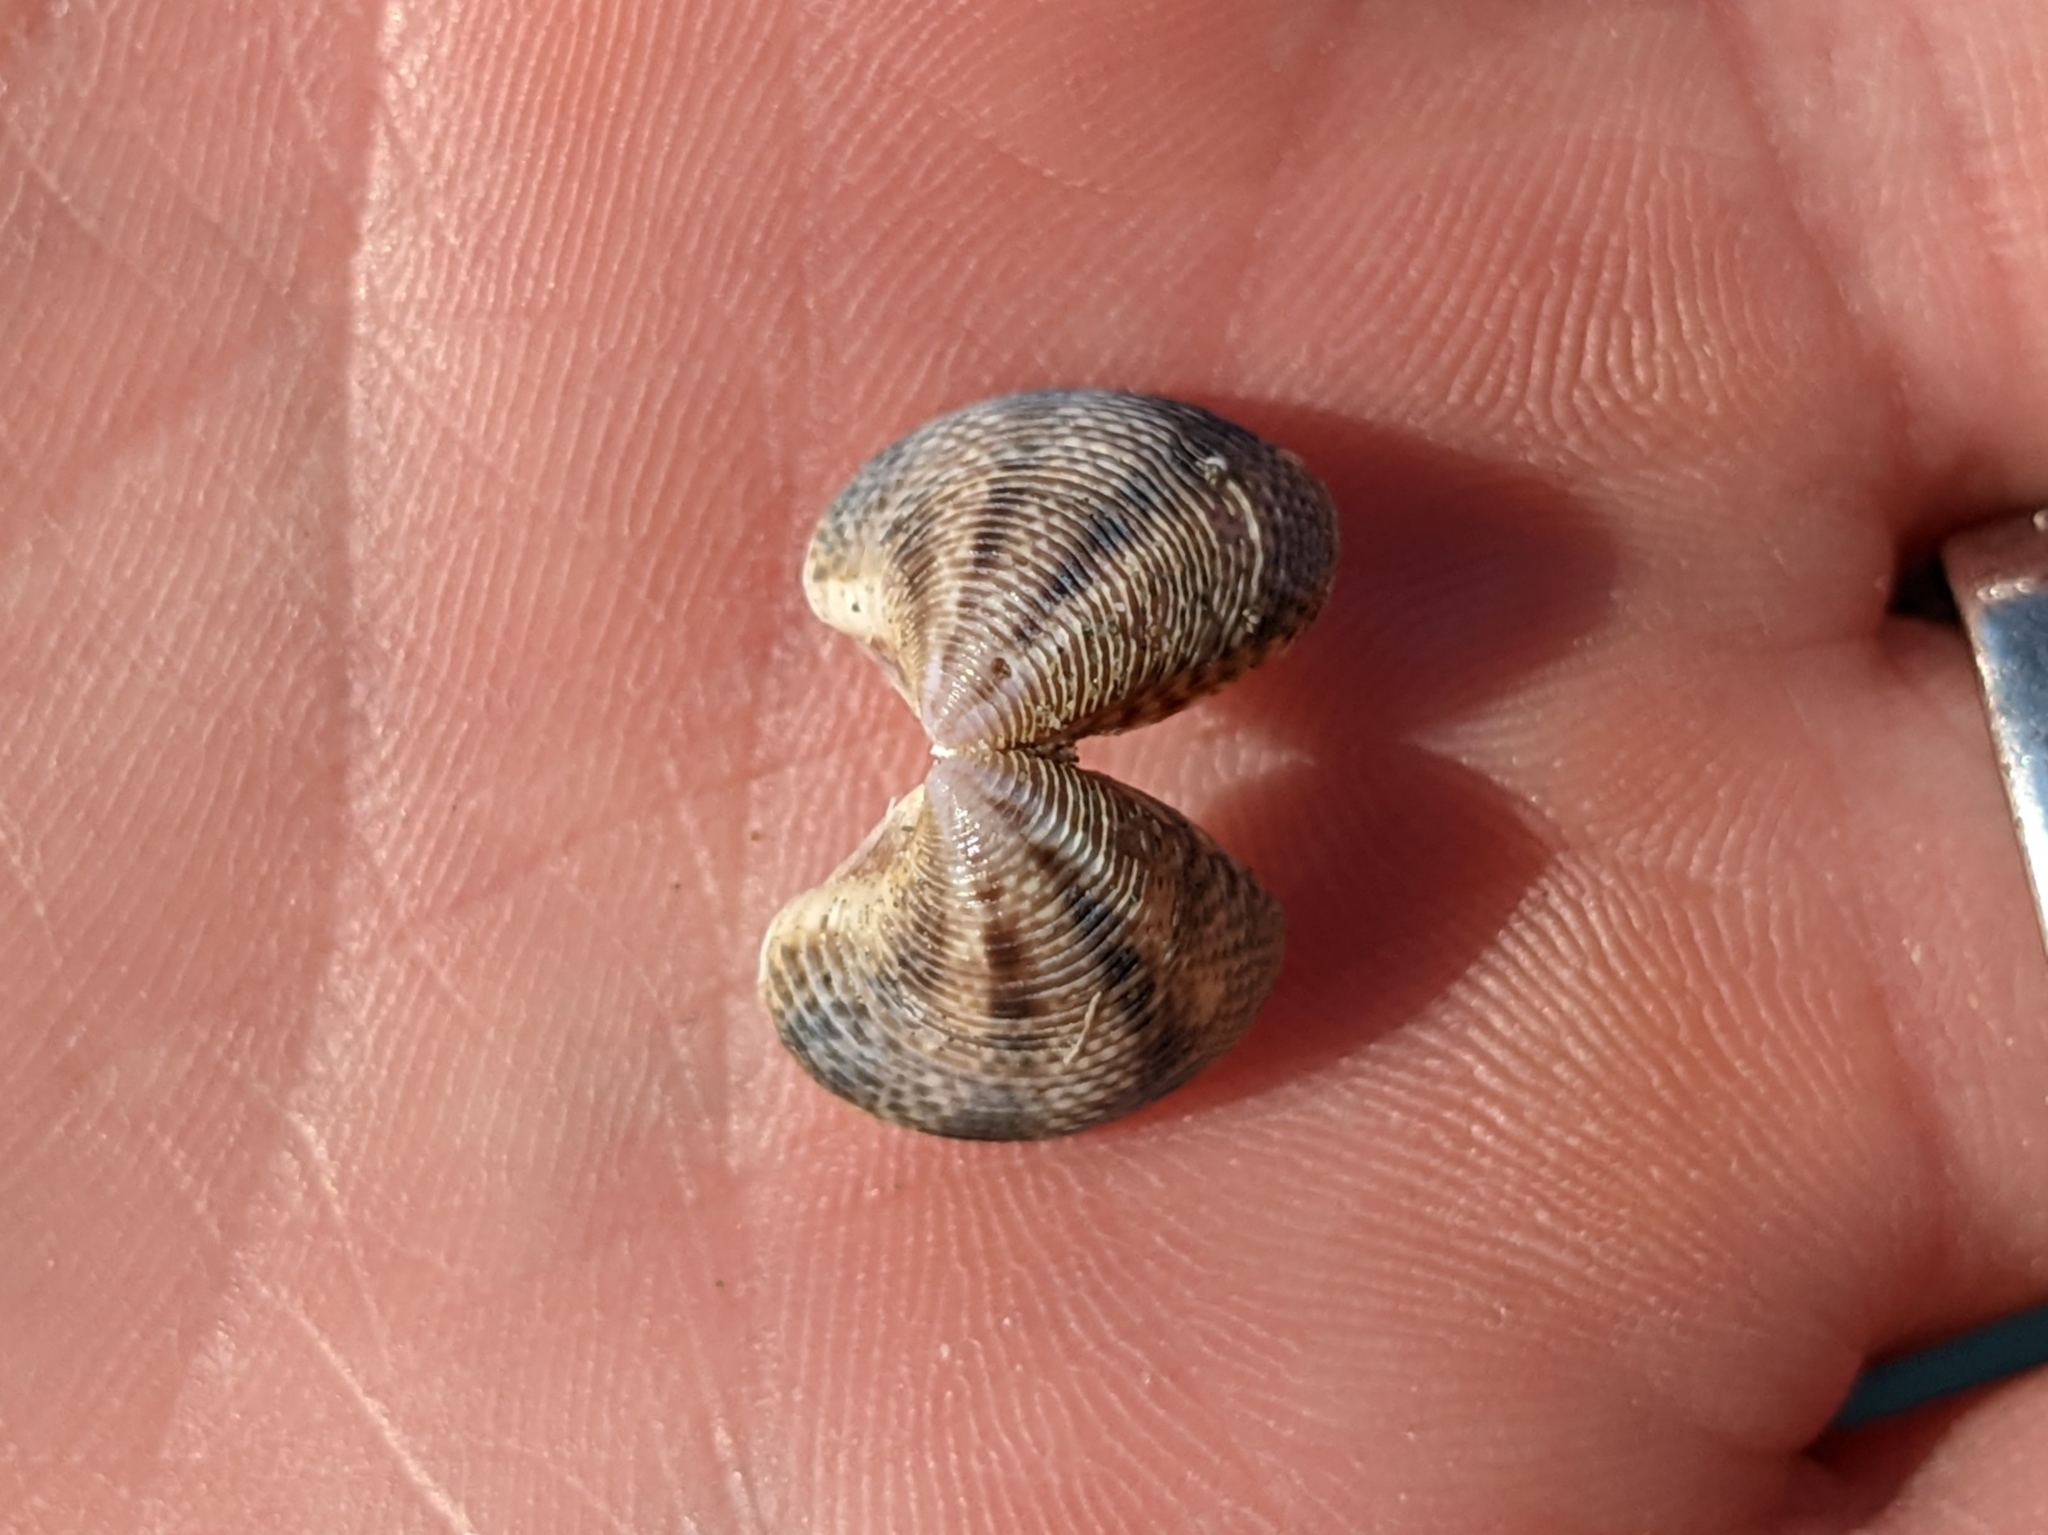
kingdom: Animalia
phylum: Mollusca
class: Bivalvia
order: Venerida
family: Veneridae
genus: Chamelea
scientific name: Chamelea gallina
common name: Chicken venus
